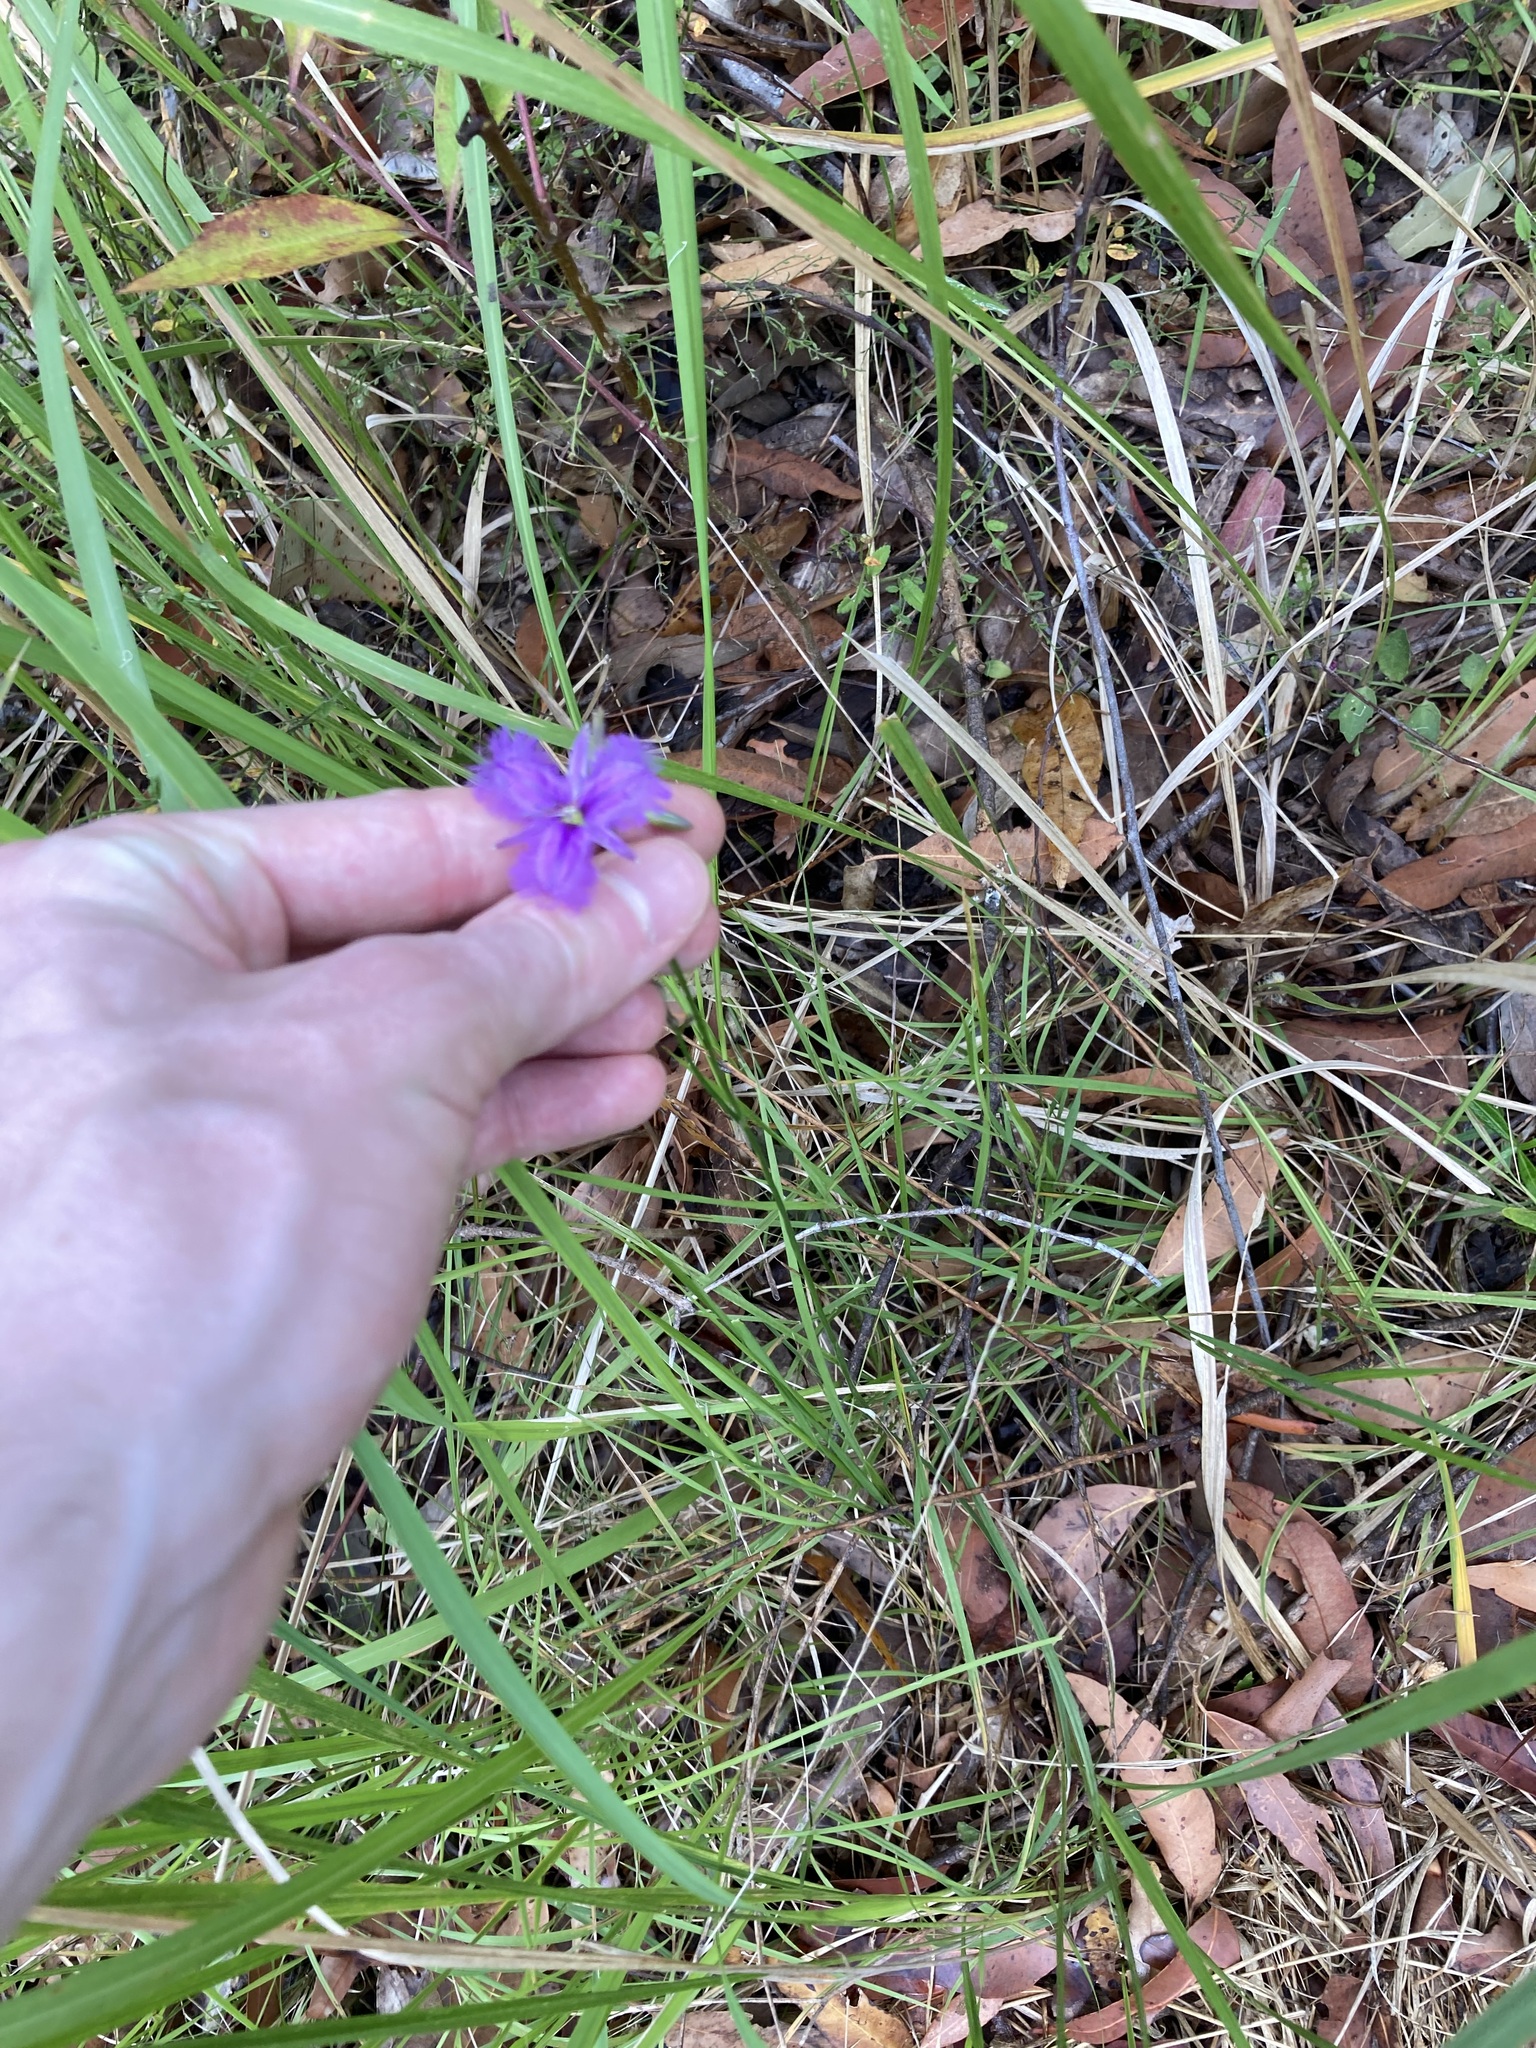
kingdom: Plantae
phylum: Tracheophyta
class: Liliopsida
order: Asparagales
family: Asparagaceae
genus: Thysanotus
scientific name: Thysanotus tuberosus
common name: Common fringed-lily
